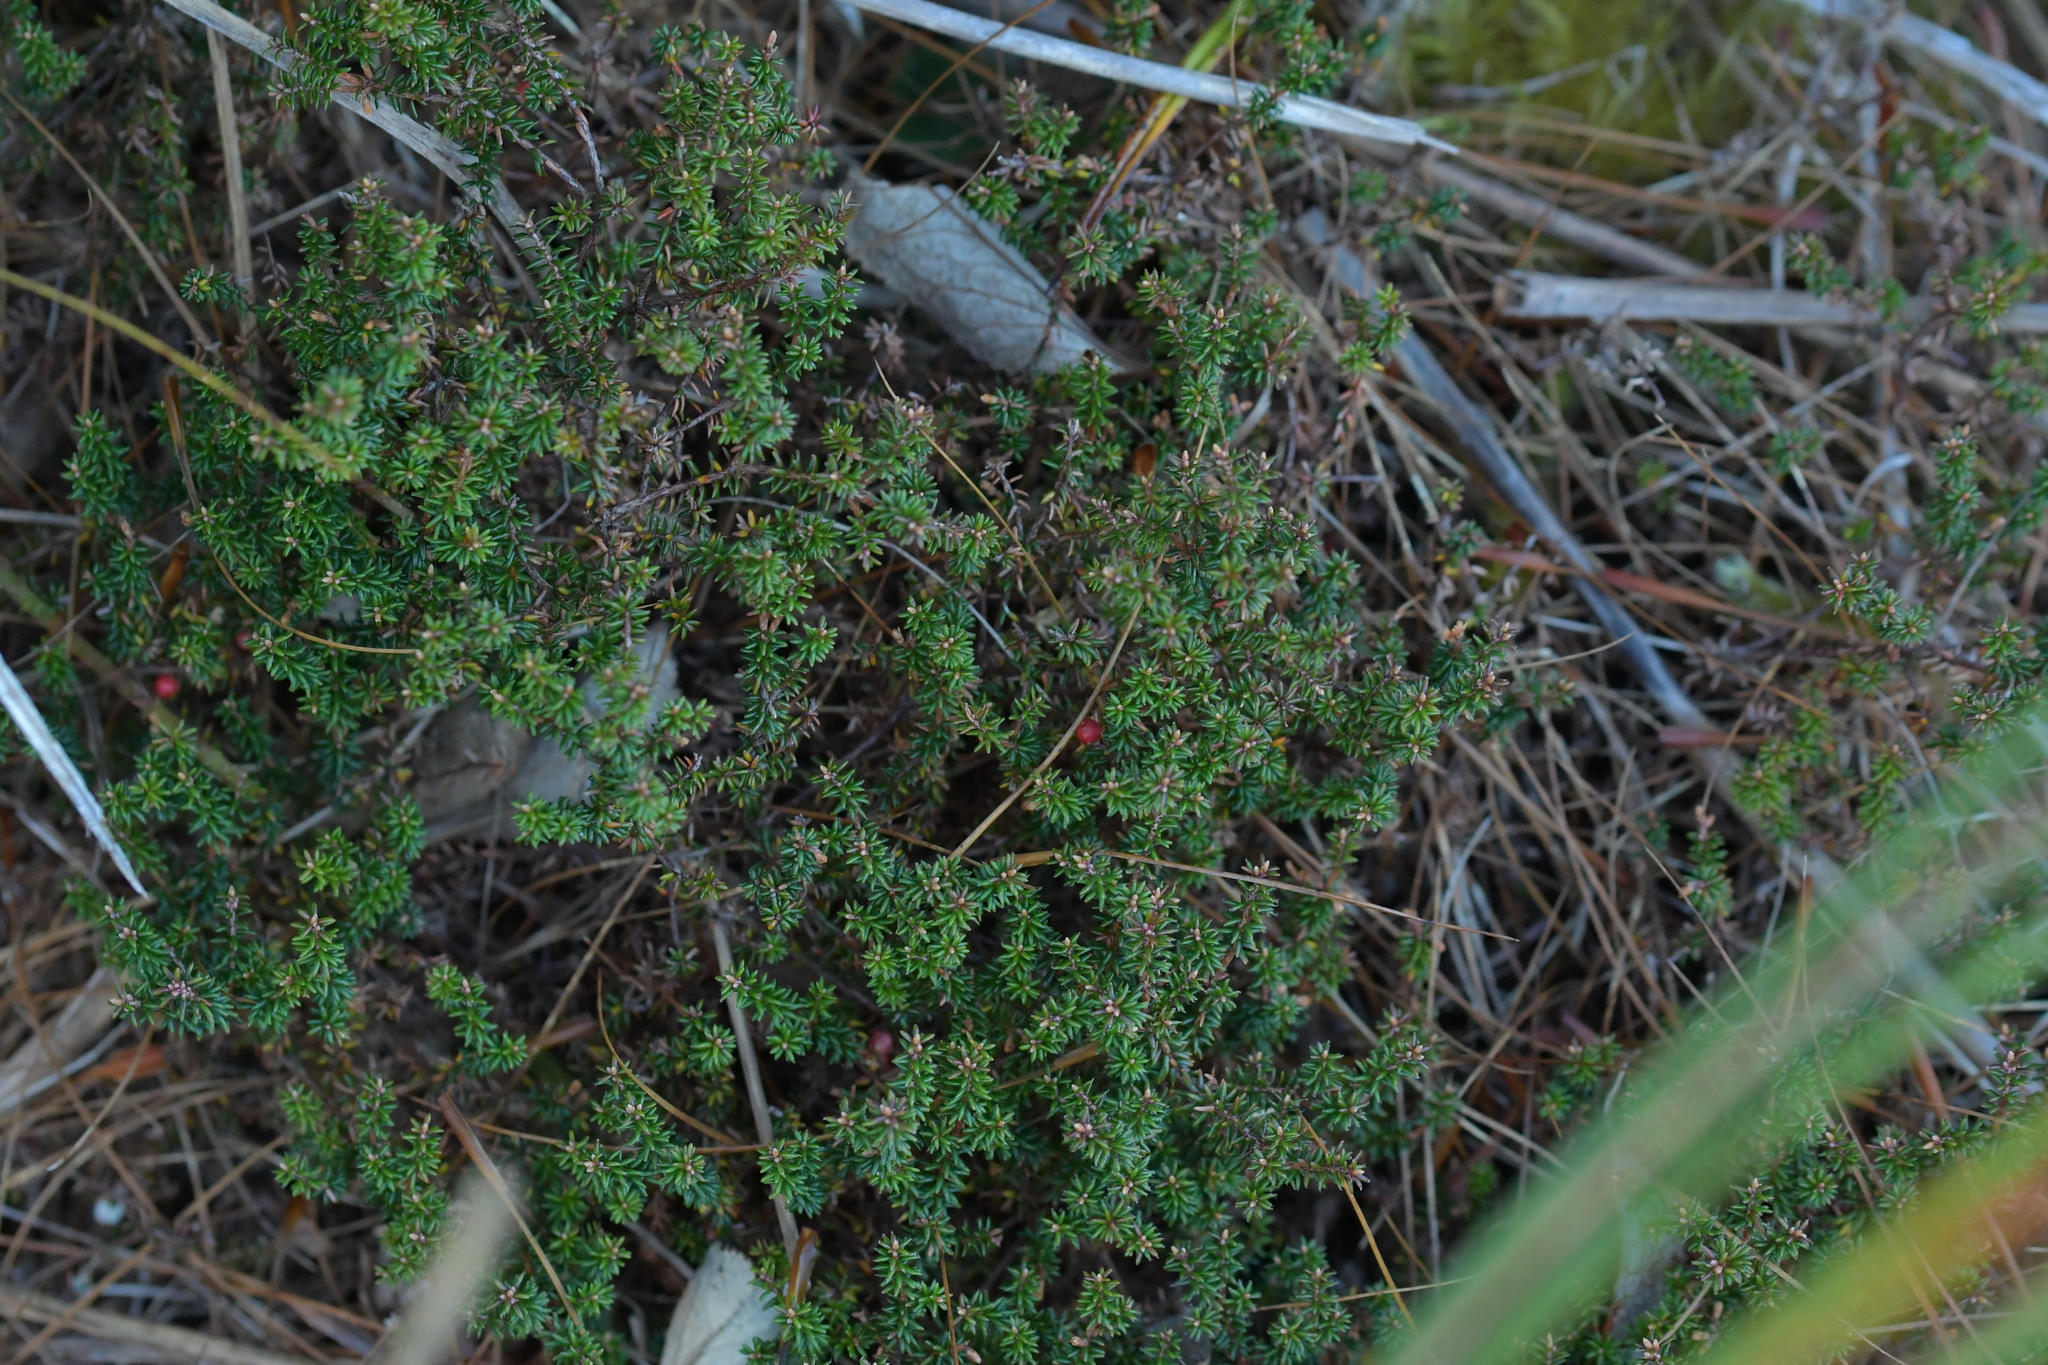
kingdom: Plantae
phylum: Tracheophyta
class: Magnoliopsida
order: Ericales
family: Ericaceae
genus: Androstoma
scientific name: Androstoma empetrifolia
